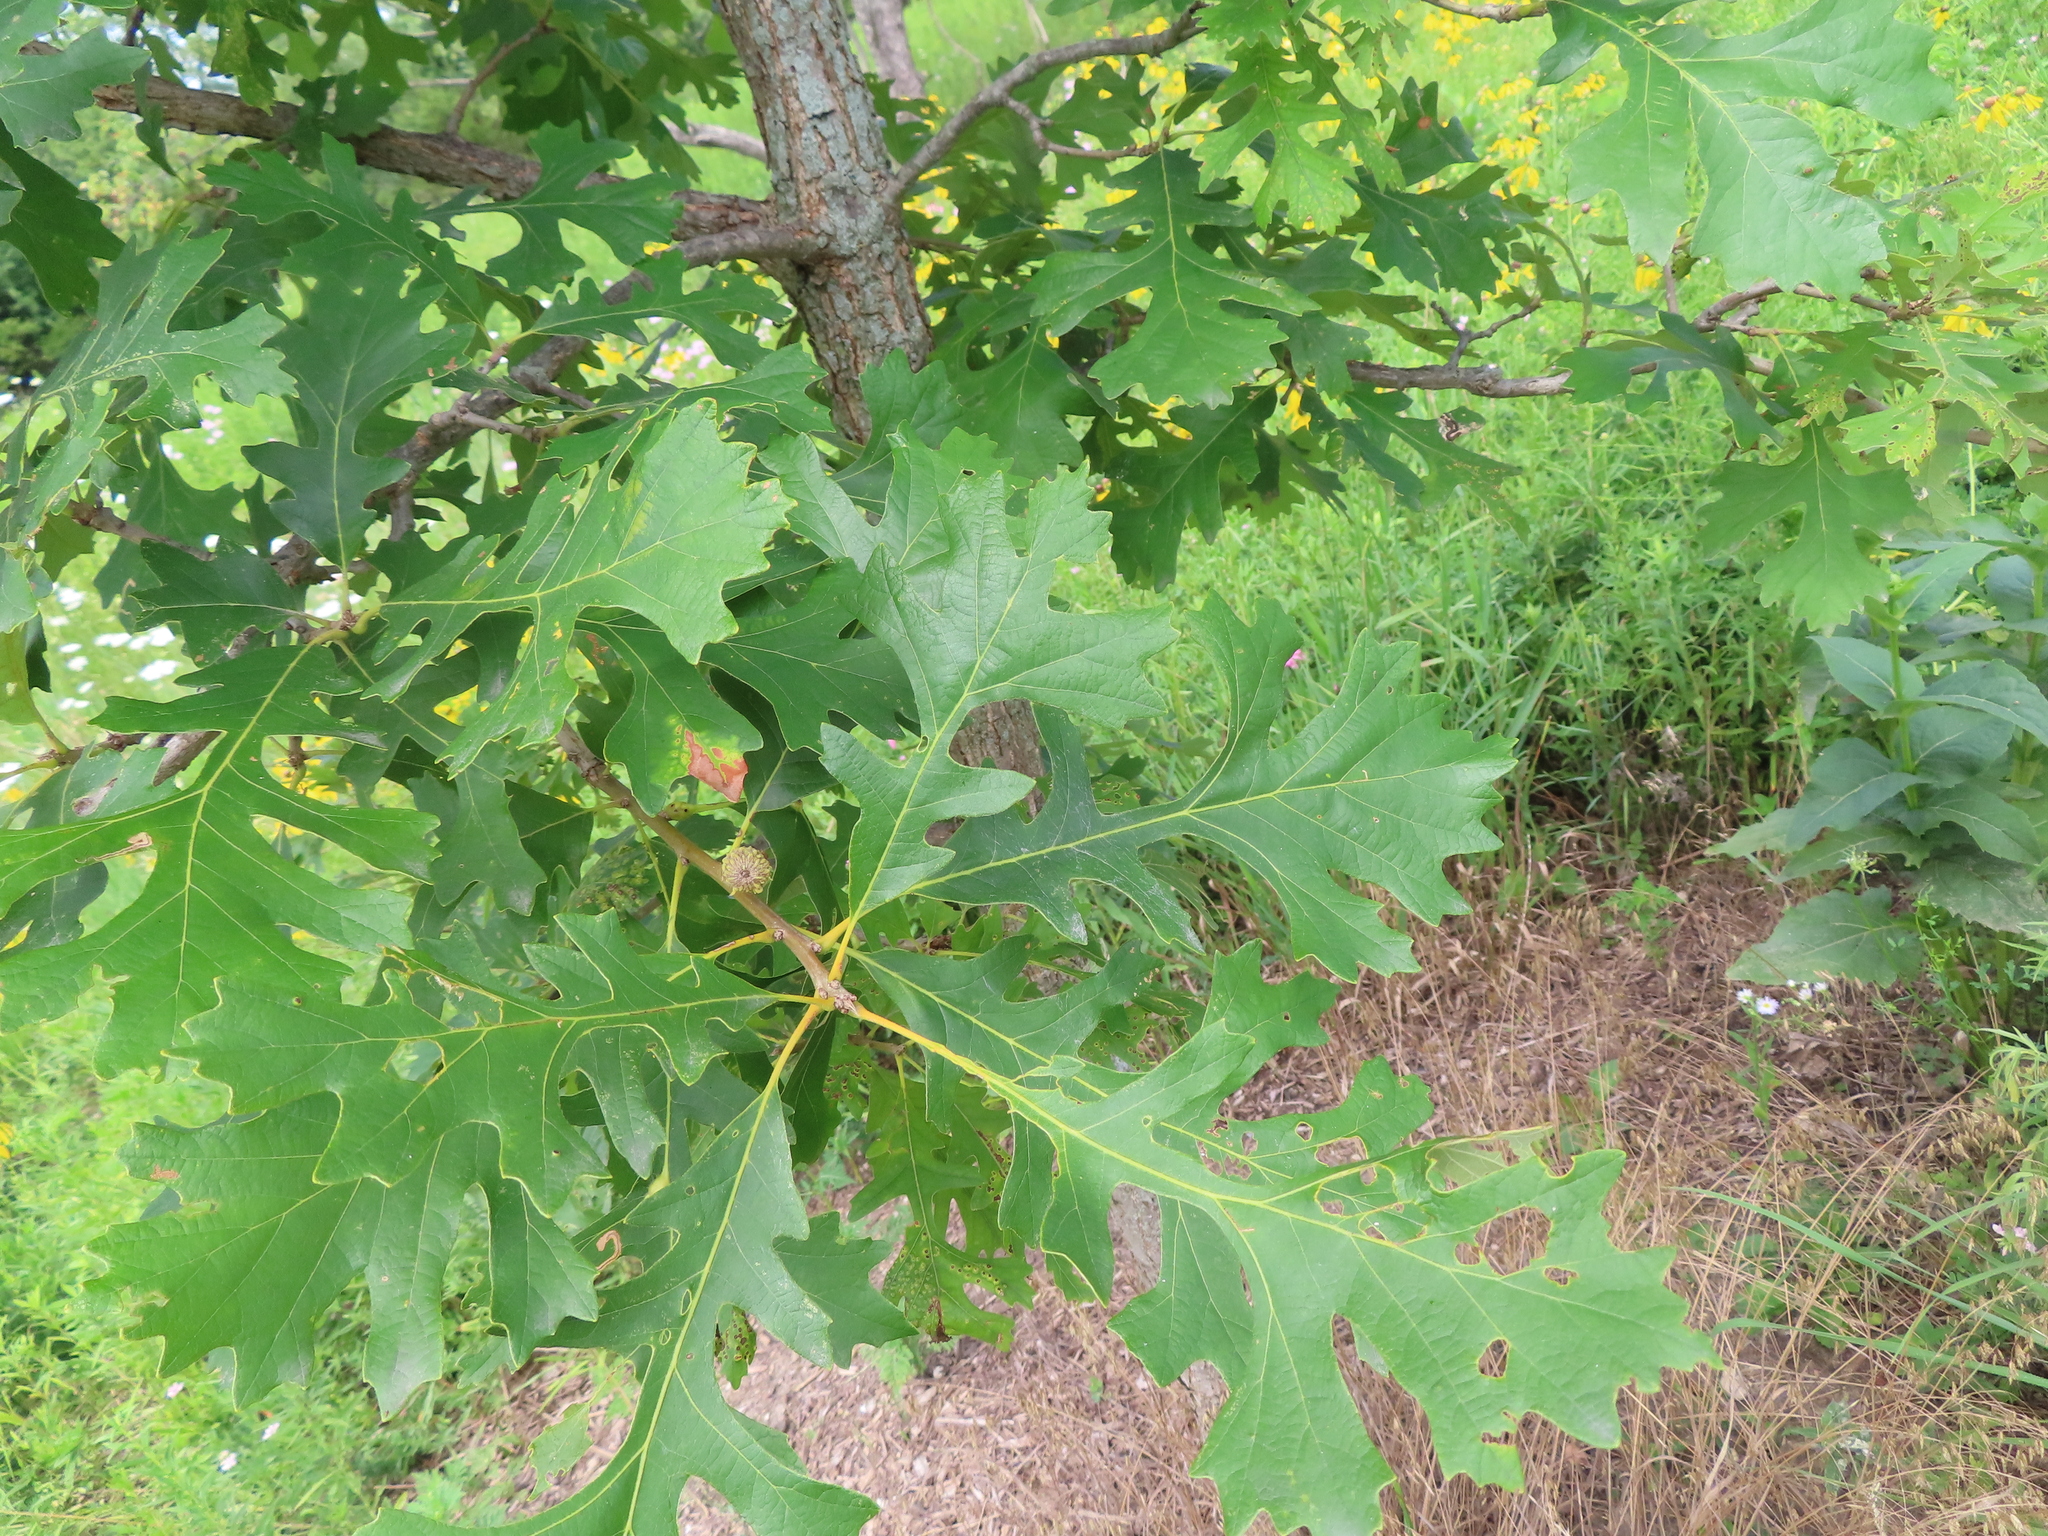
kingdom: Plantae
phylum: Tracheophyta
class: Magnoliopsida
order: Fagales
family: Fagaceae
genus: Quercus
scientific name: Quercus macrocarpa
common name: Bur oak
